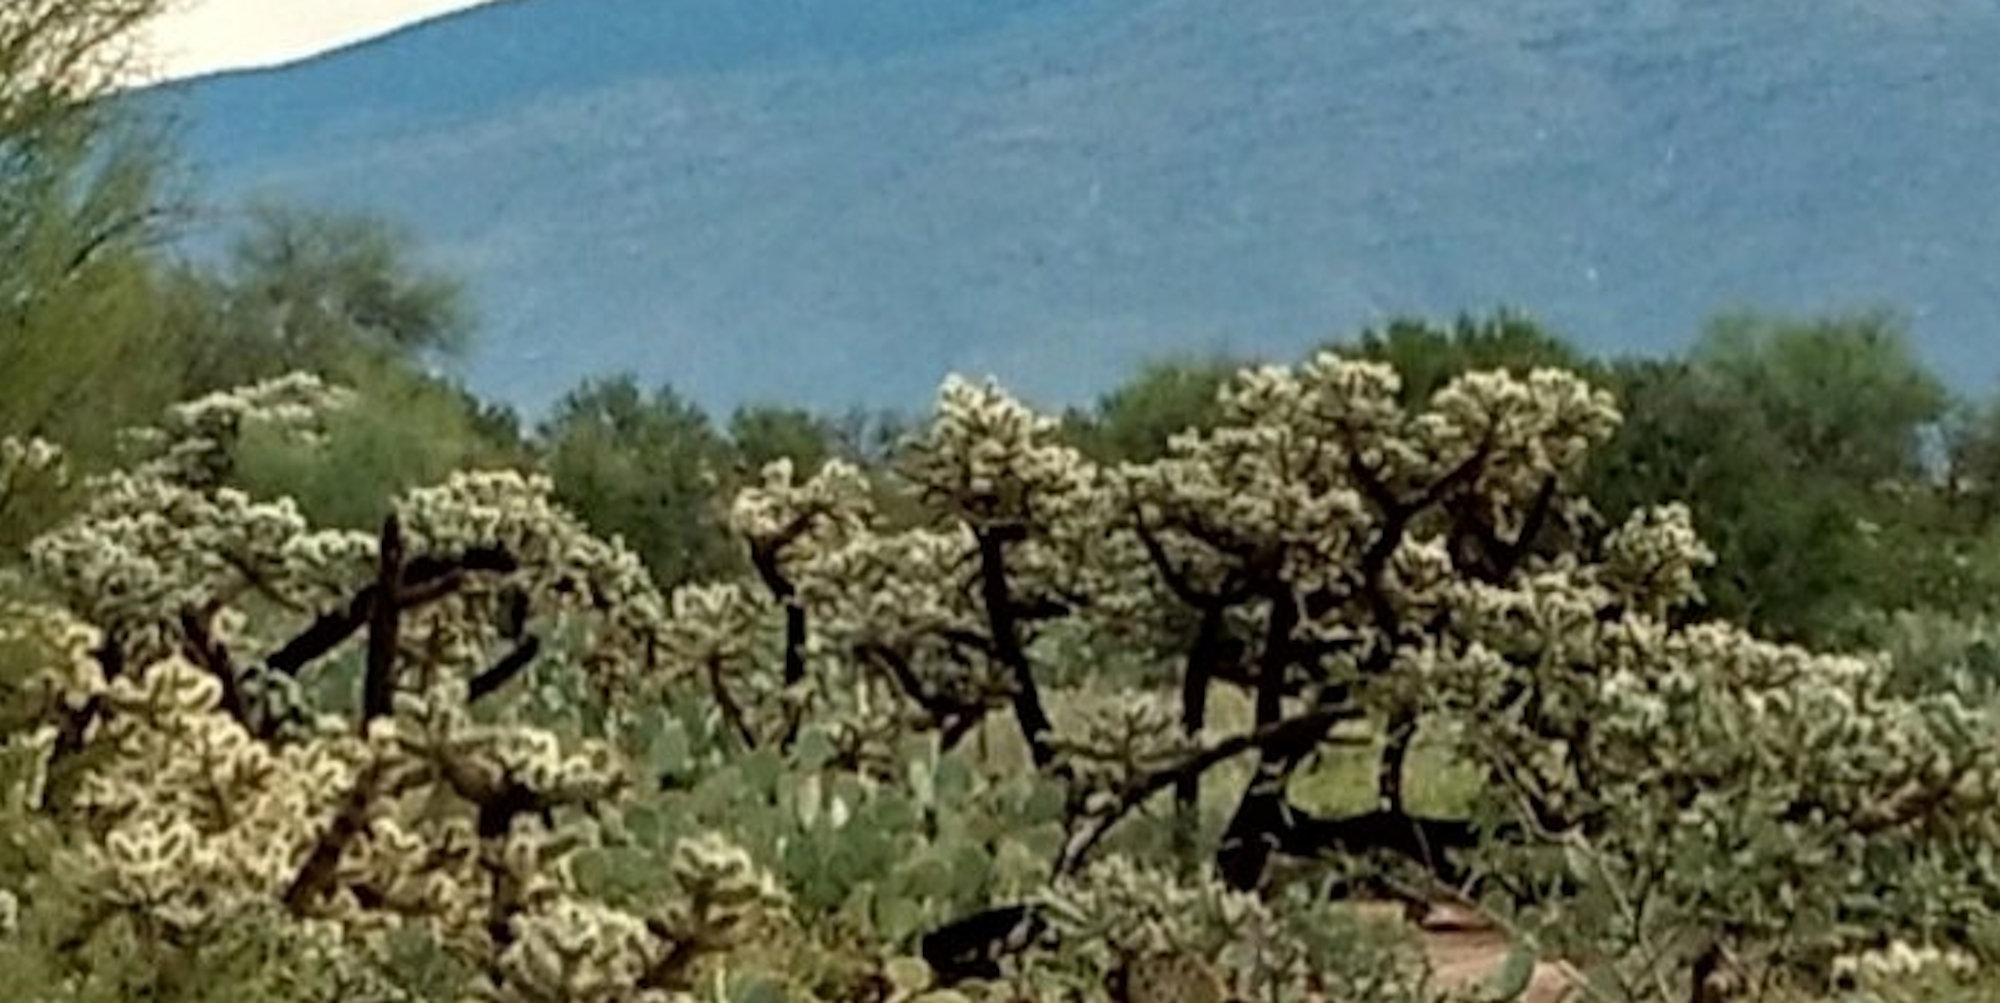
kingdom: Plantae
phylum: Tracheophyta
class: Magnoliopsida
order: Caryophyllales
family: Cactaceae
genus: Cylindropuntia
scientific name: Cylindropuntia fulgida
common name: Jumping cholla
